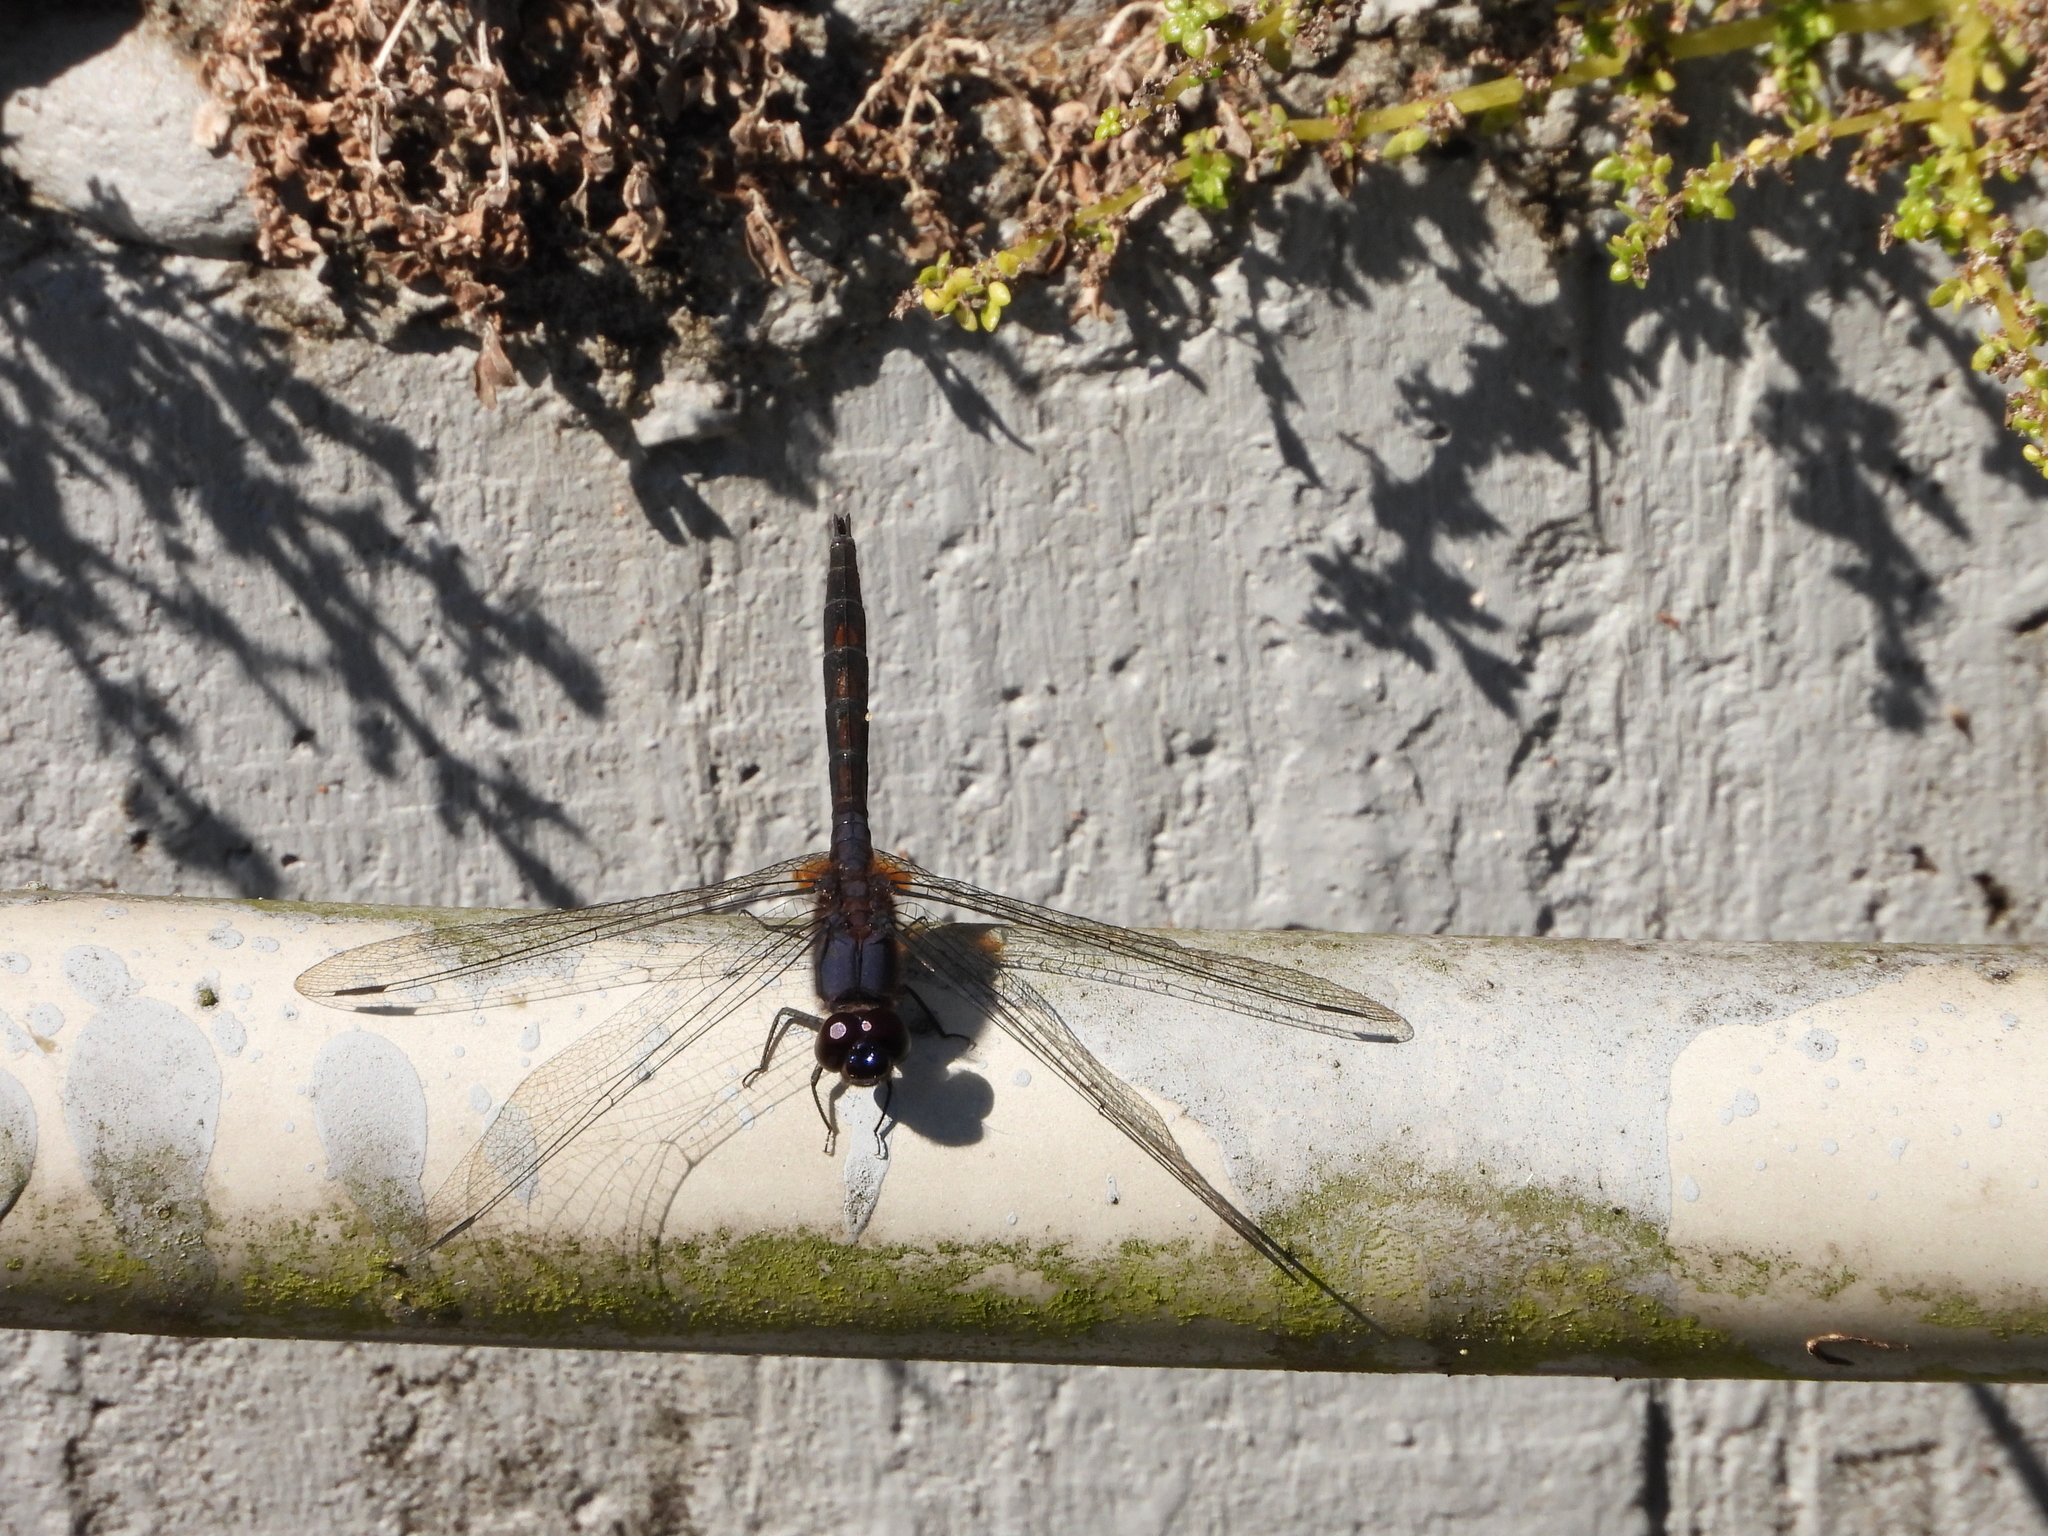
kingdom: Animalia
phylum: Arthropoda
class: Insecta
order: Odonata
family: Libellulidae
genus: Trithemis
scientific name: Trithemis festiva
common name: Indigo dropwing
